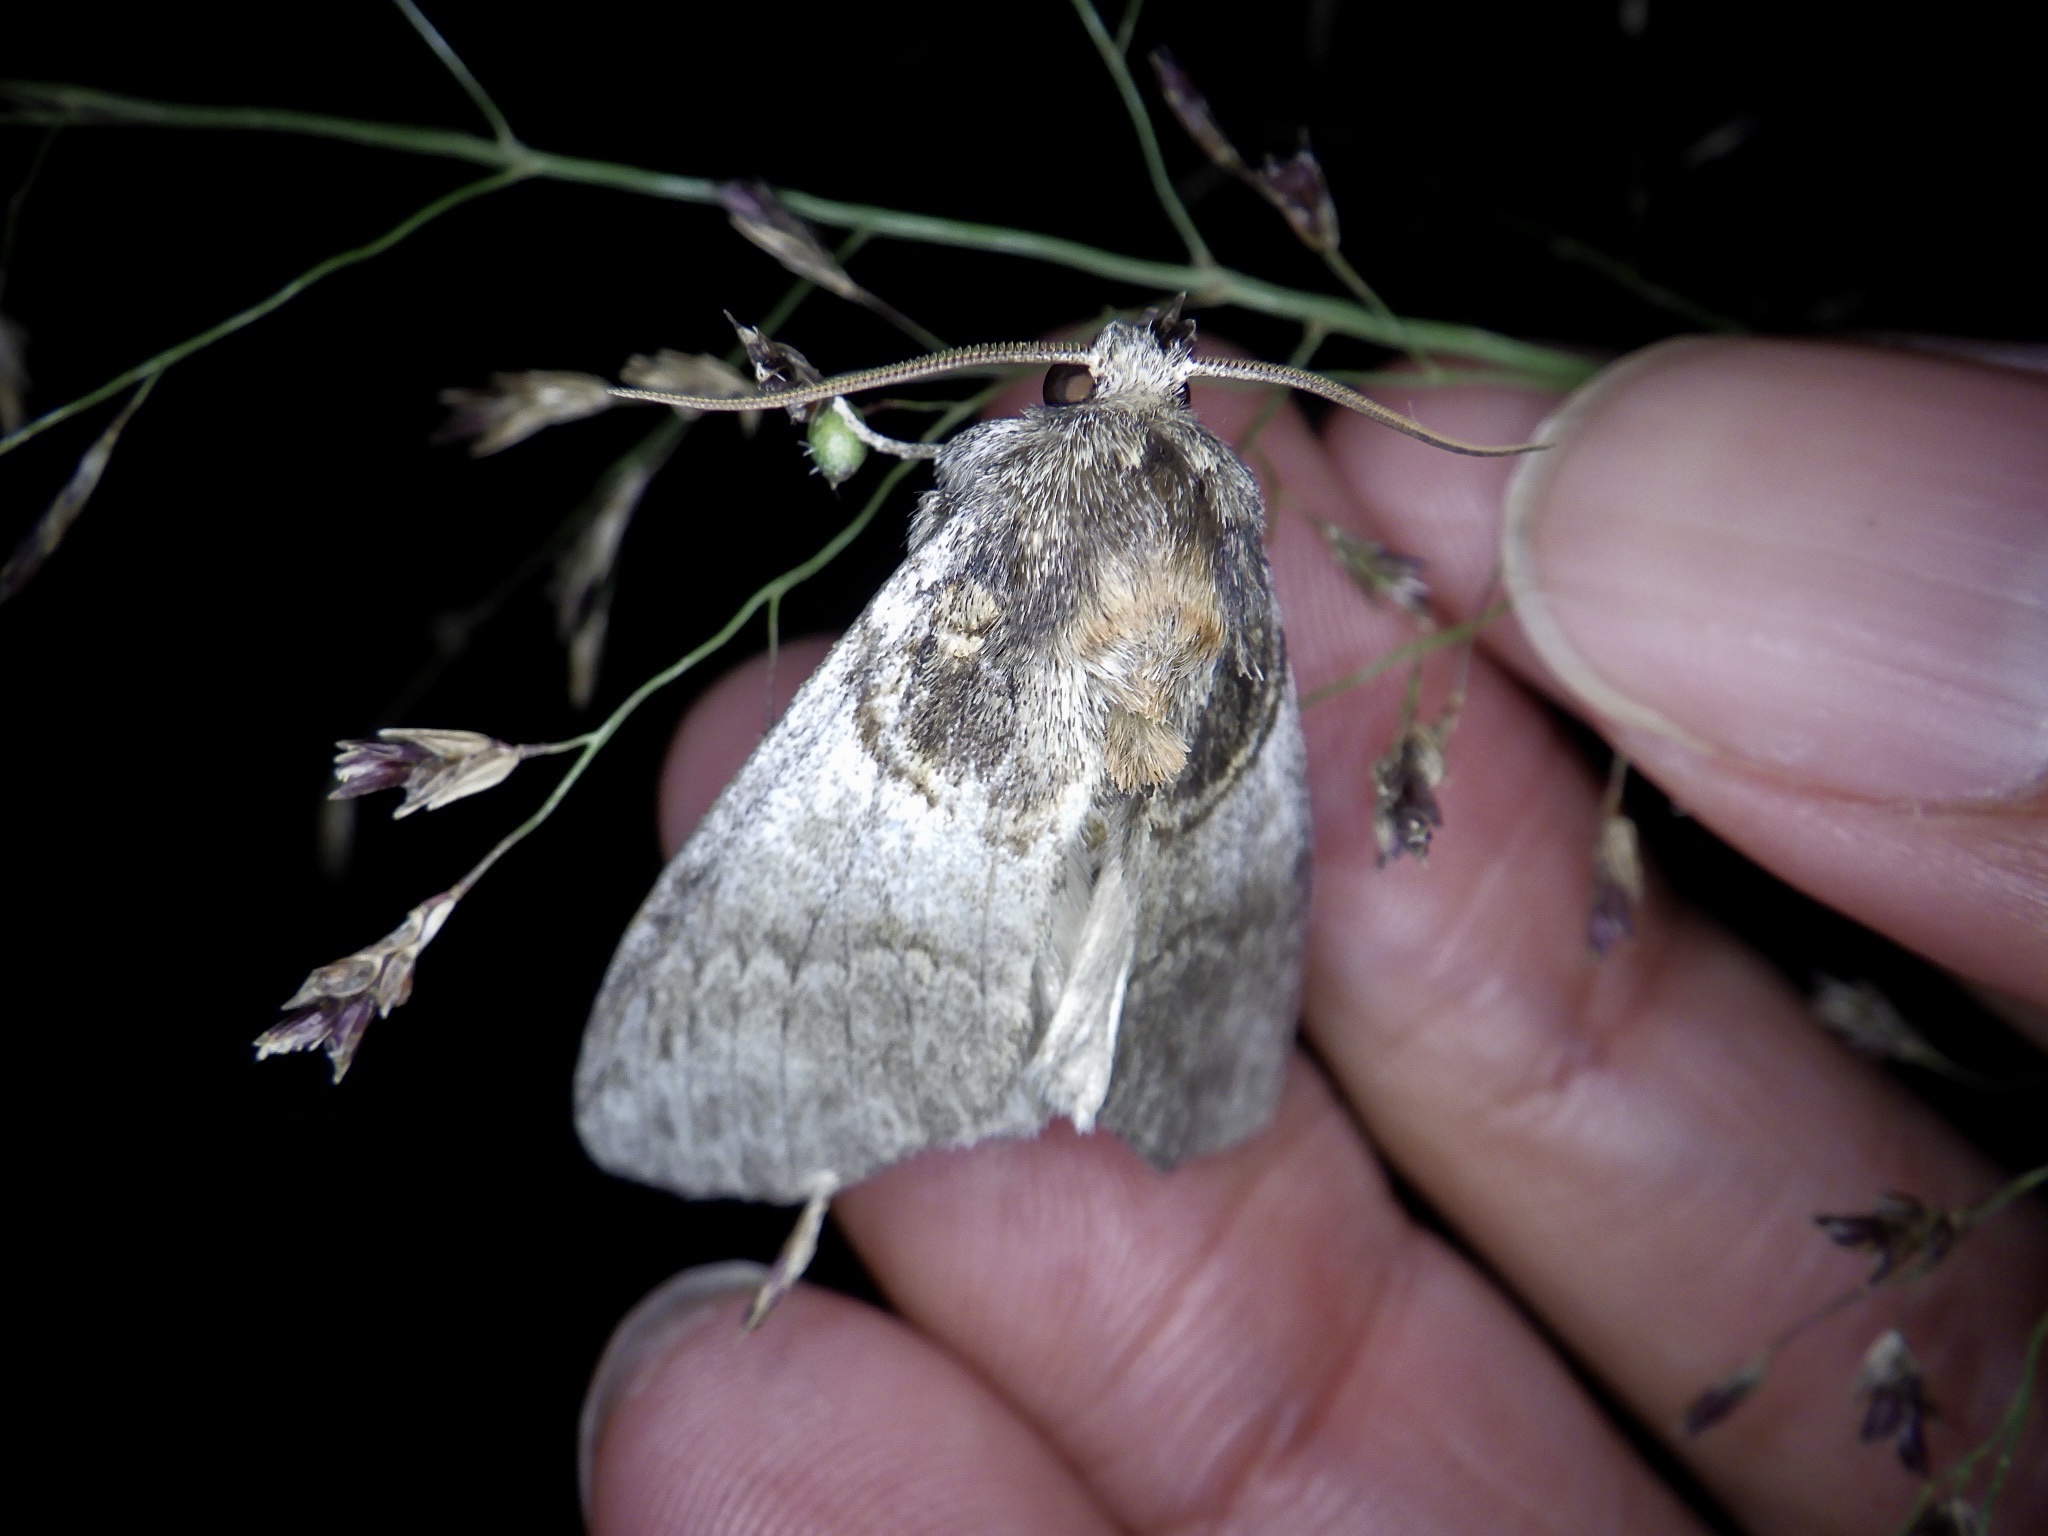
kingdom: Animalia
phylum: Arthropoda
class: Insecta
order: Lepidoptera
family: Notodontidae
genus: Peridea
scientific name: Peridea rotundata
